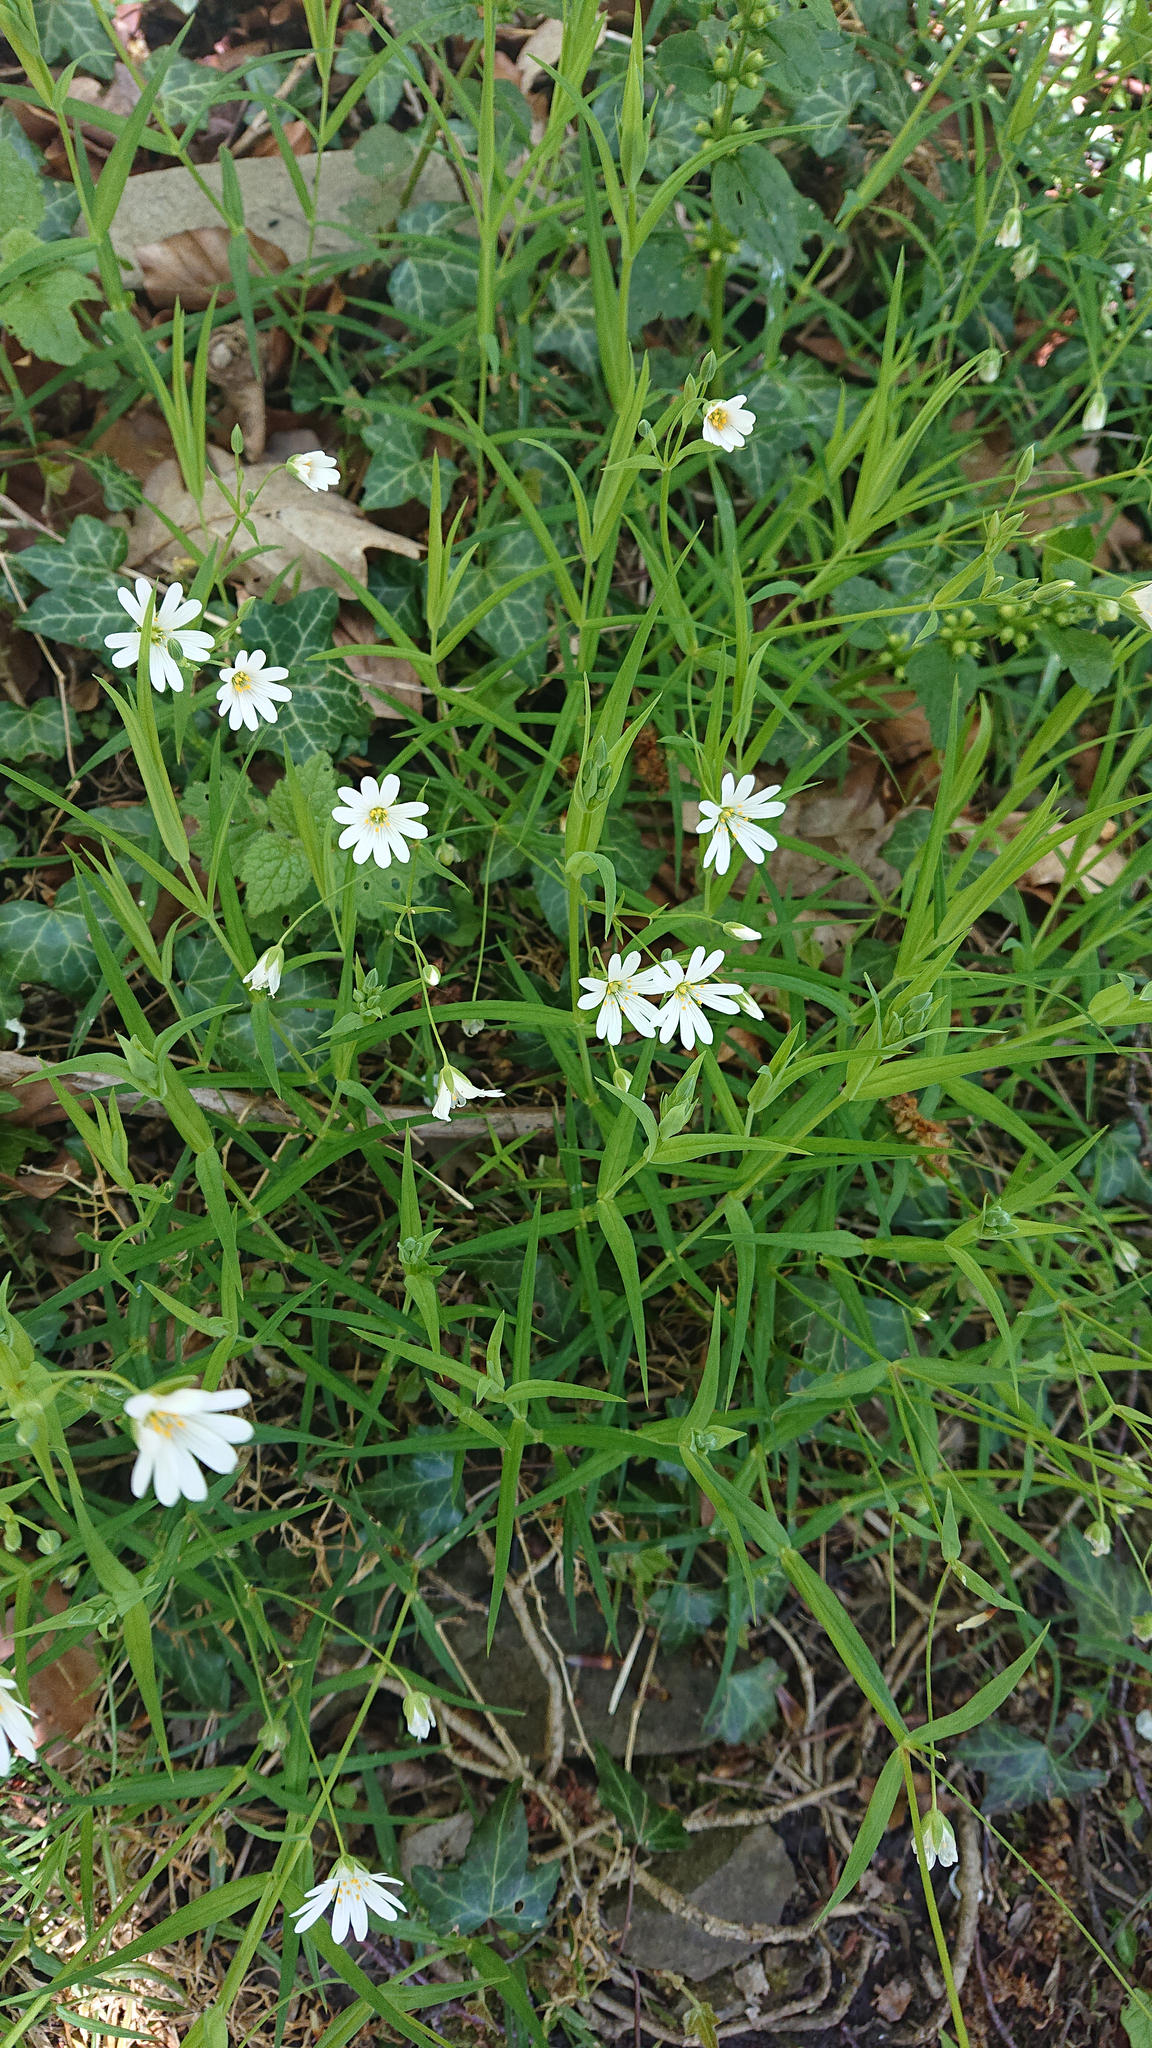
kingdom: Plantae
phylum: Tracheophyta
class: Magnoliopsida
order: Caryophyllales
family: Caryophyllaceae
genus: Rabelera
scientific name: Rabelera holostea
